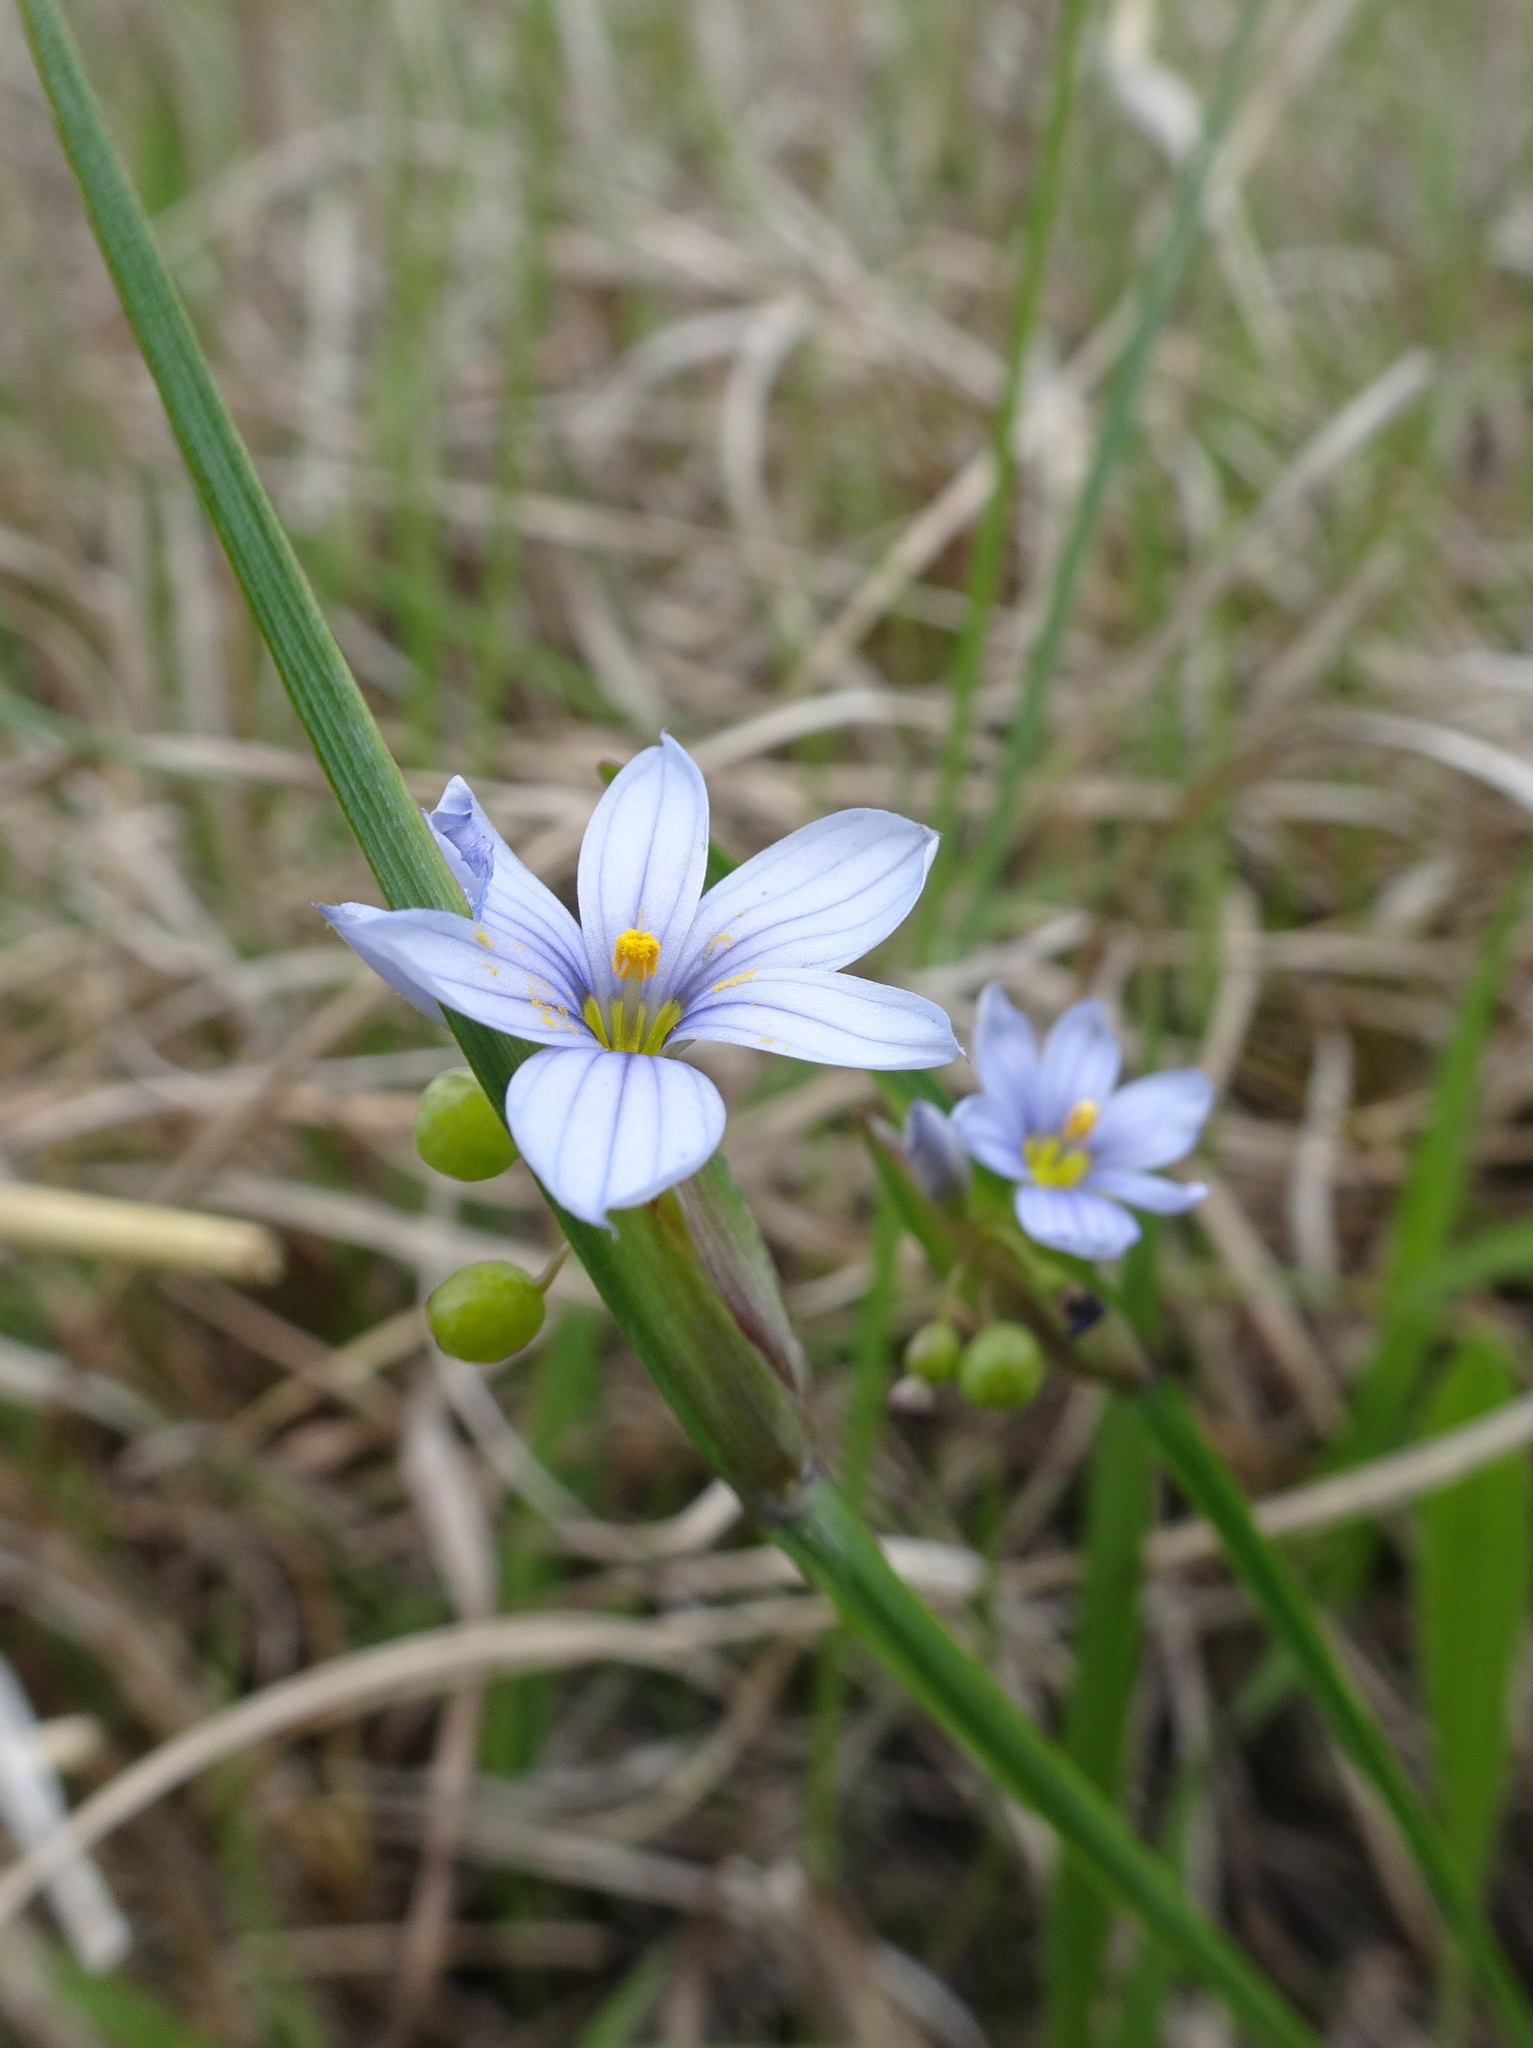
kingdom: Plantae
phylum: Tracheophyta
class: Liliopsida
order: Asparagales
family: Iridaceae
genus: Sisyrinchium
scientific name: Sisyrinchium campestre
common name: Prairie blue-eyed-grass
